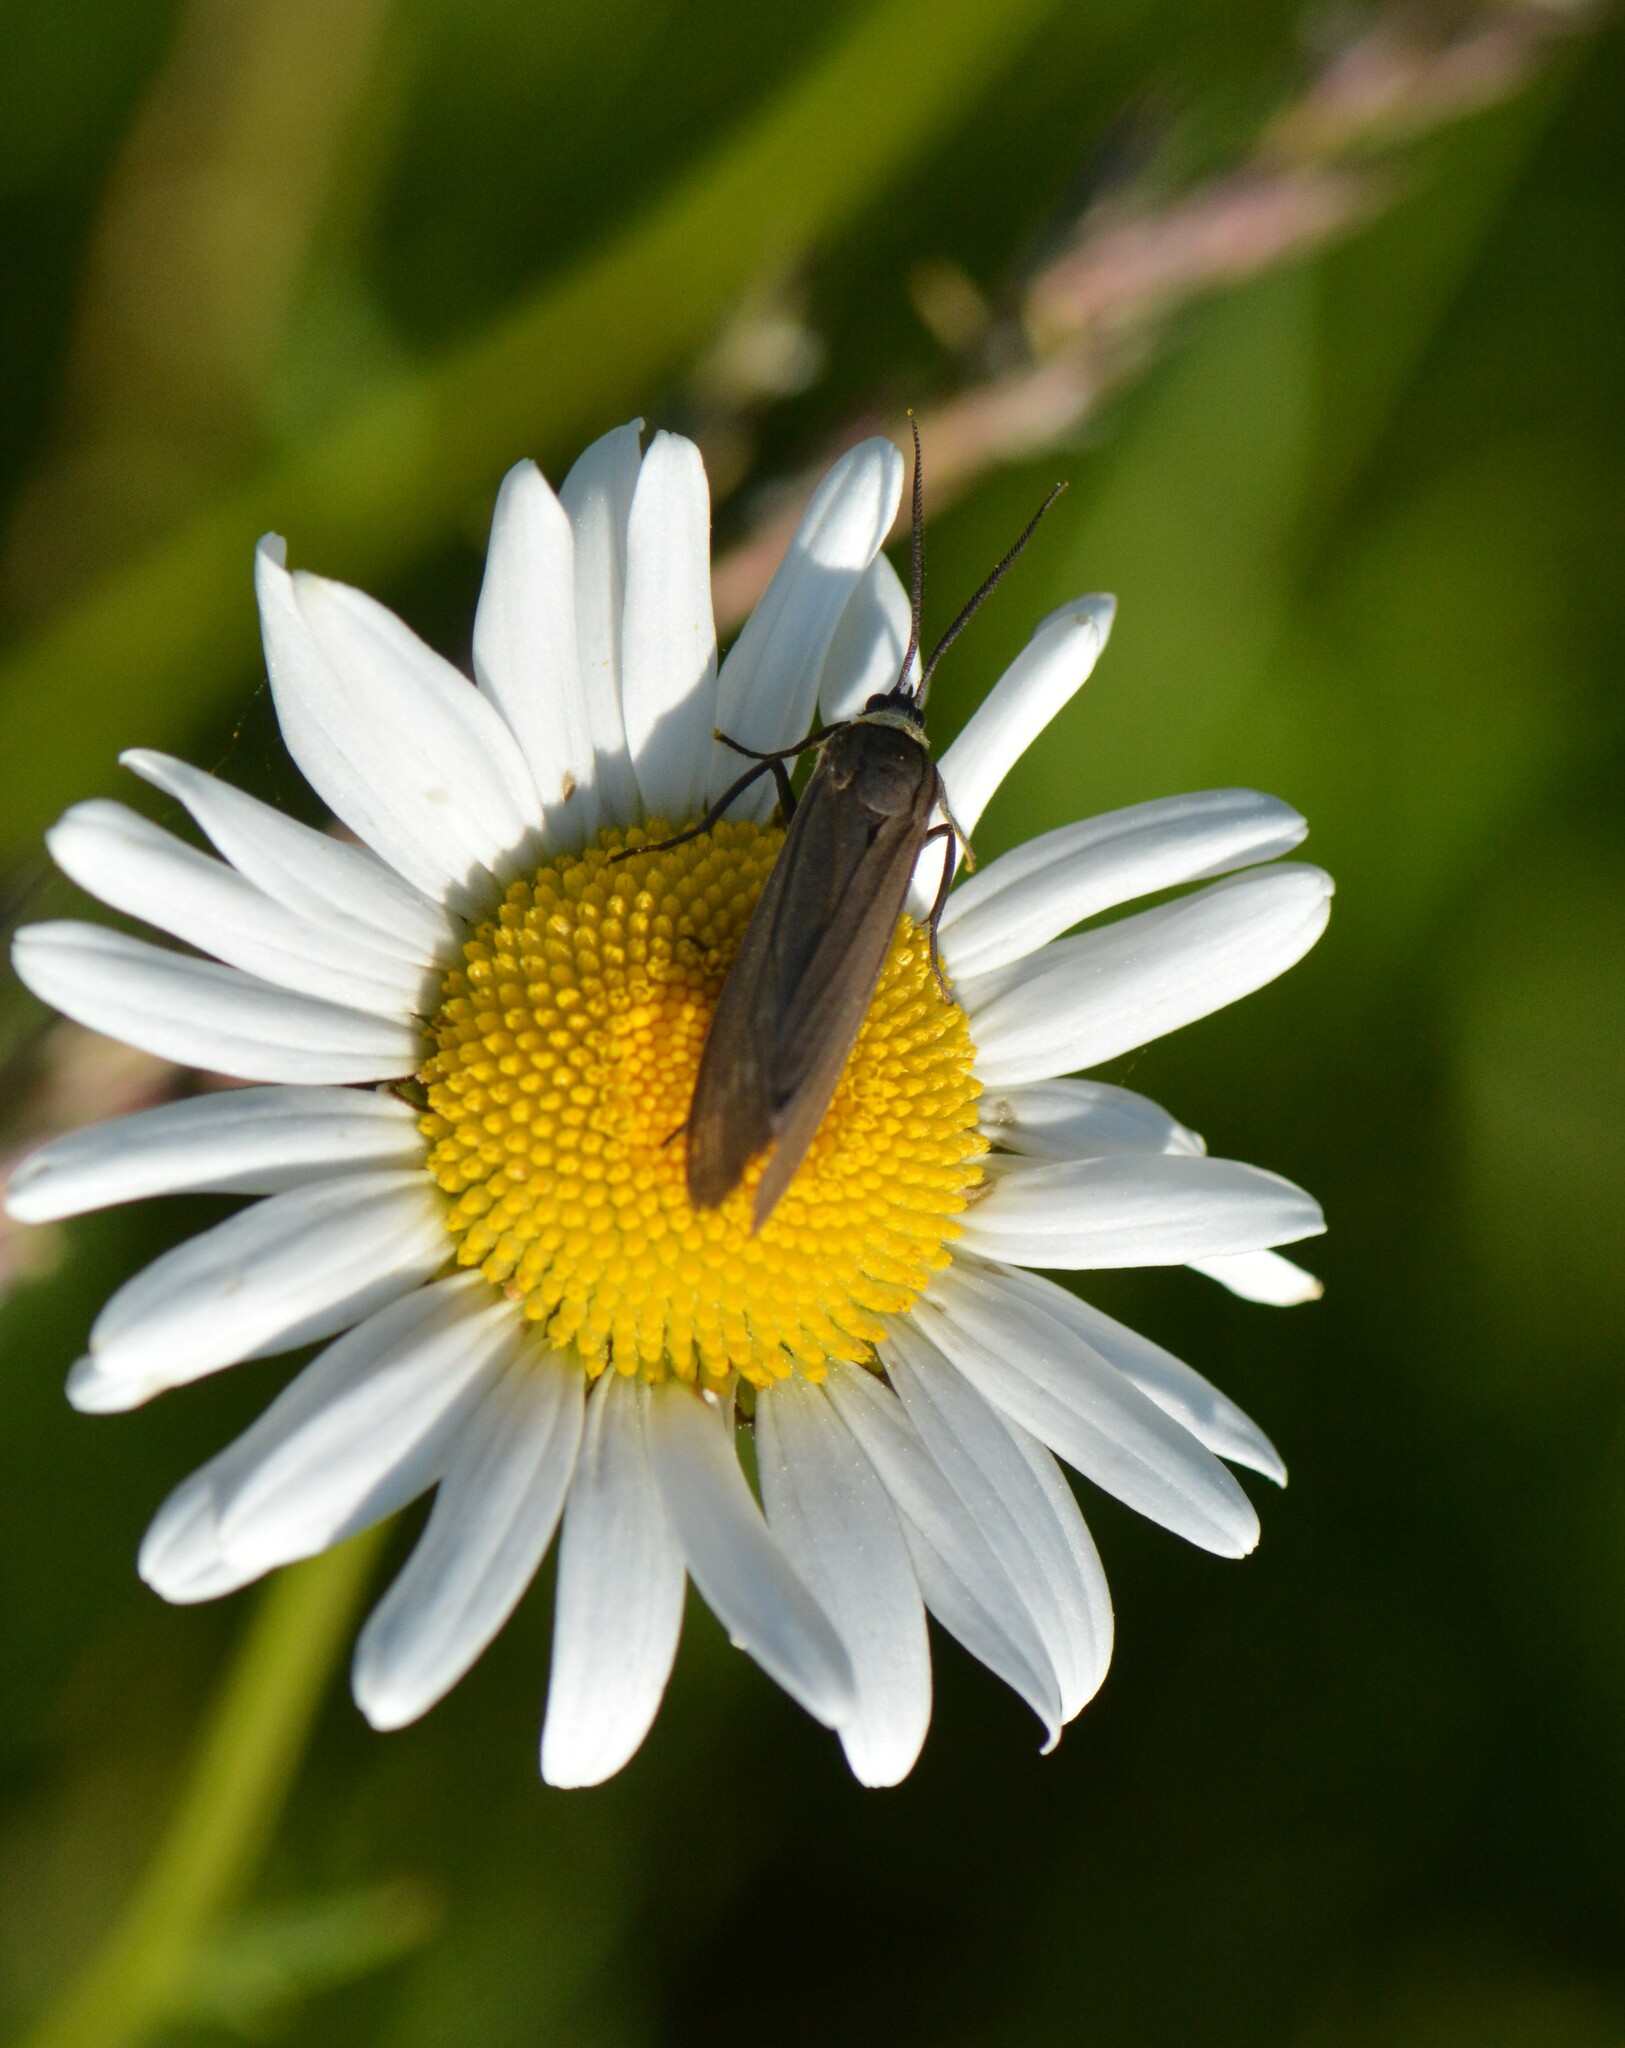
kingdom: Animalia
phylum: Arthropoda
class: Insecta
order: Lepidoptera
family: Erebidae
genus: Cisseps
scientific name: Cisseps fulvicollis
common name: Yellow-collared scape moth
